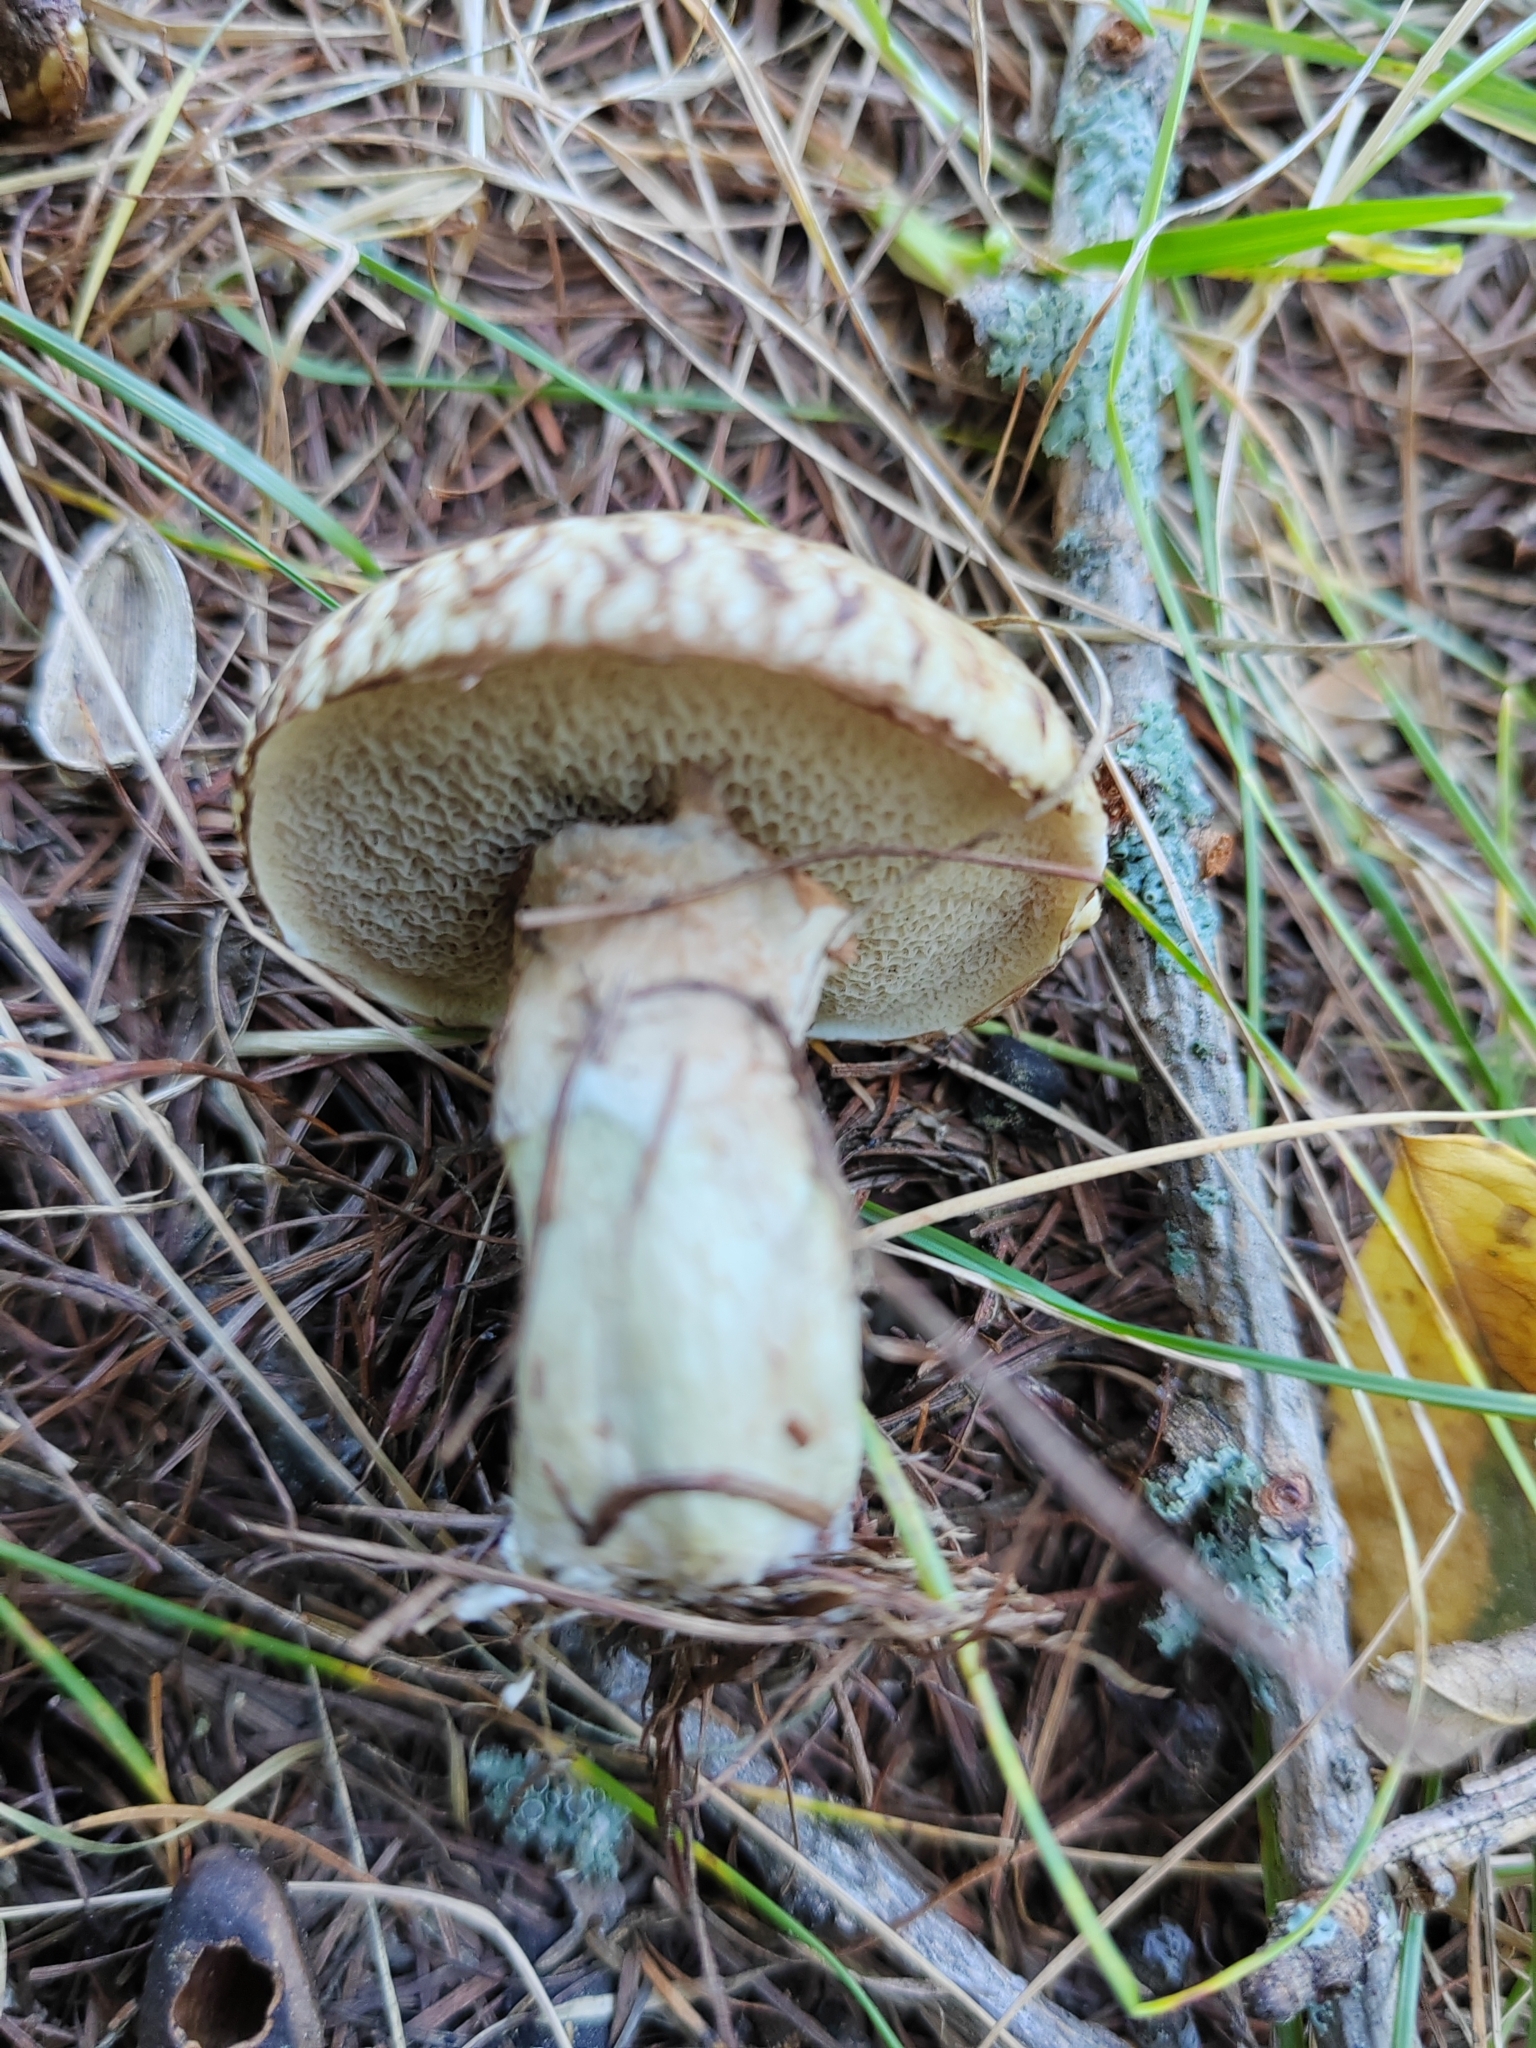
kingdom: Fungi
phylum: Basidiomycota
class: Agaricomycetes
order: Boletales
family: Suillaceae
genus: Suillus
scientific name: Suillus viscidus
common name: Sticky bolete
